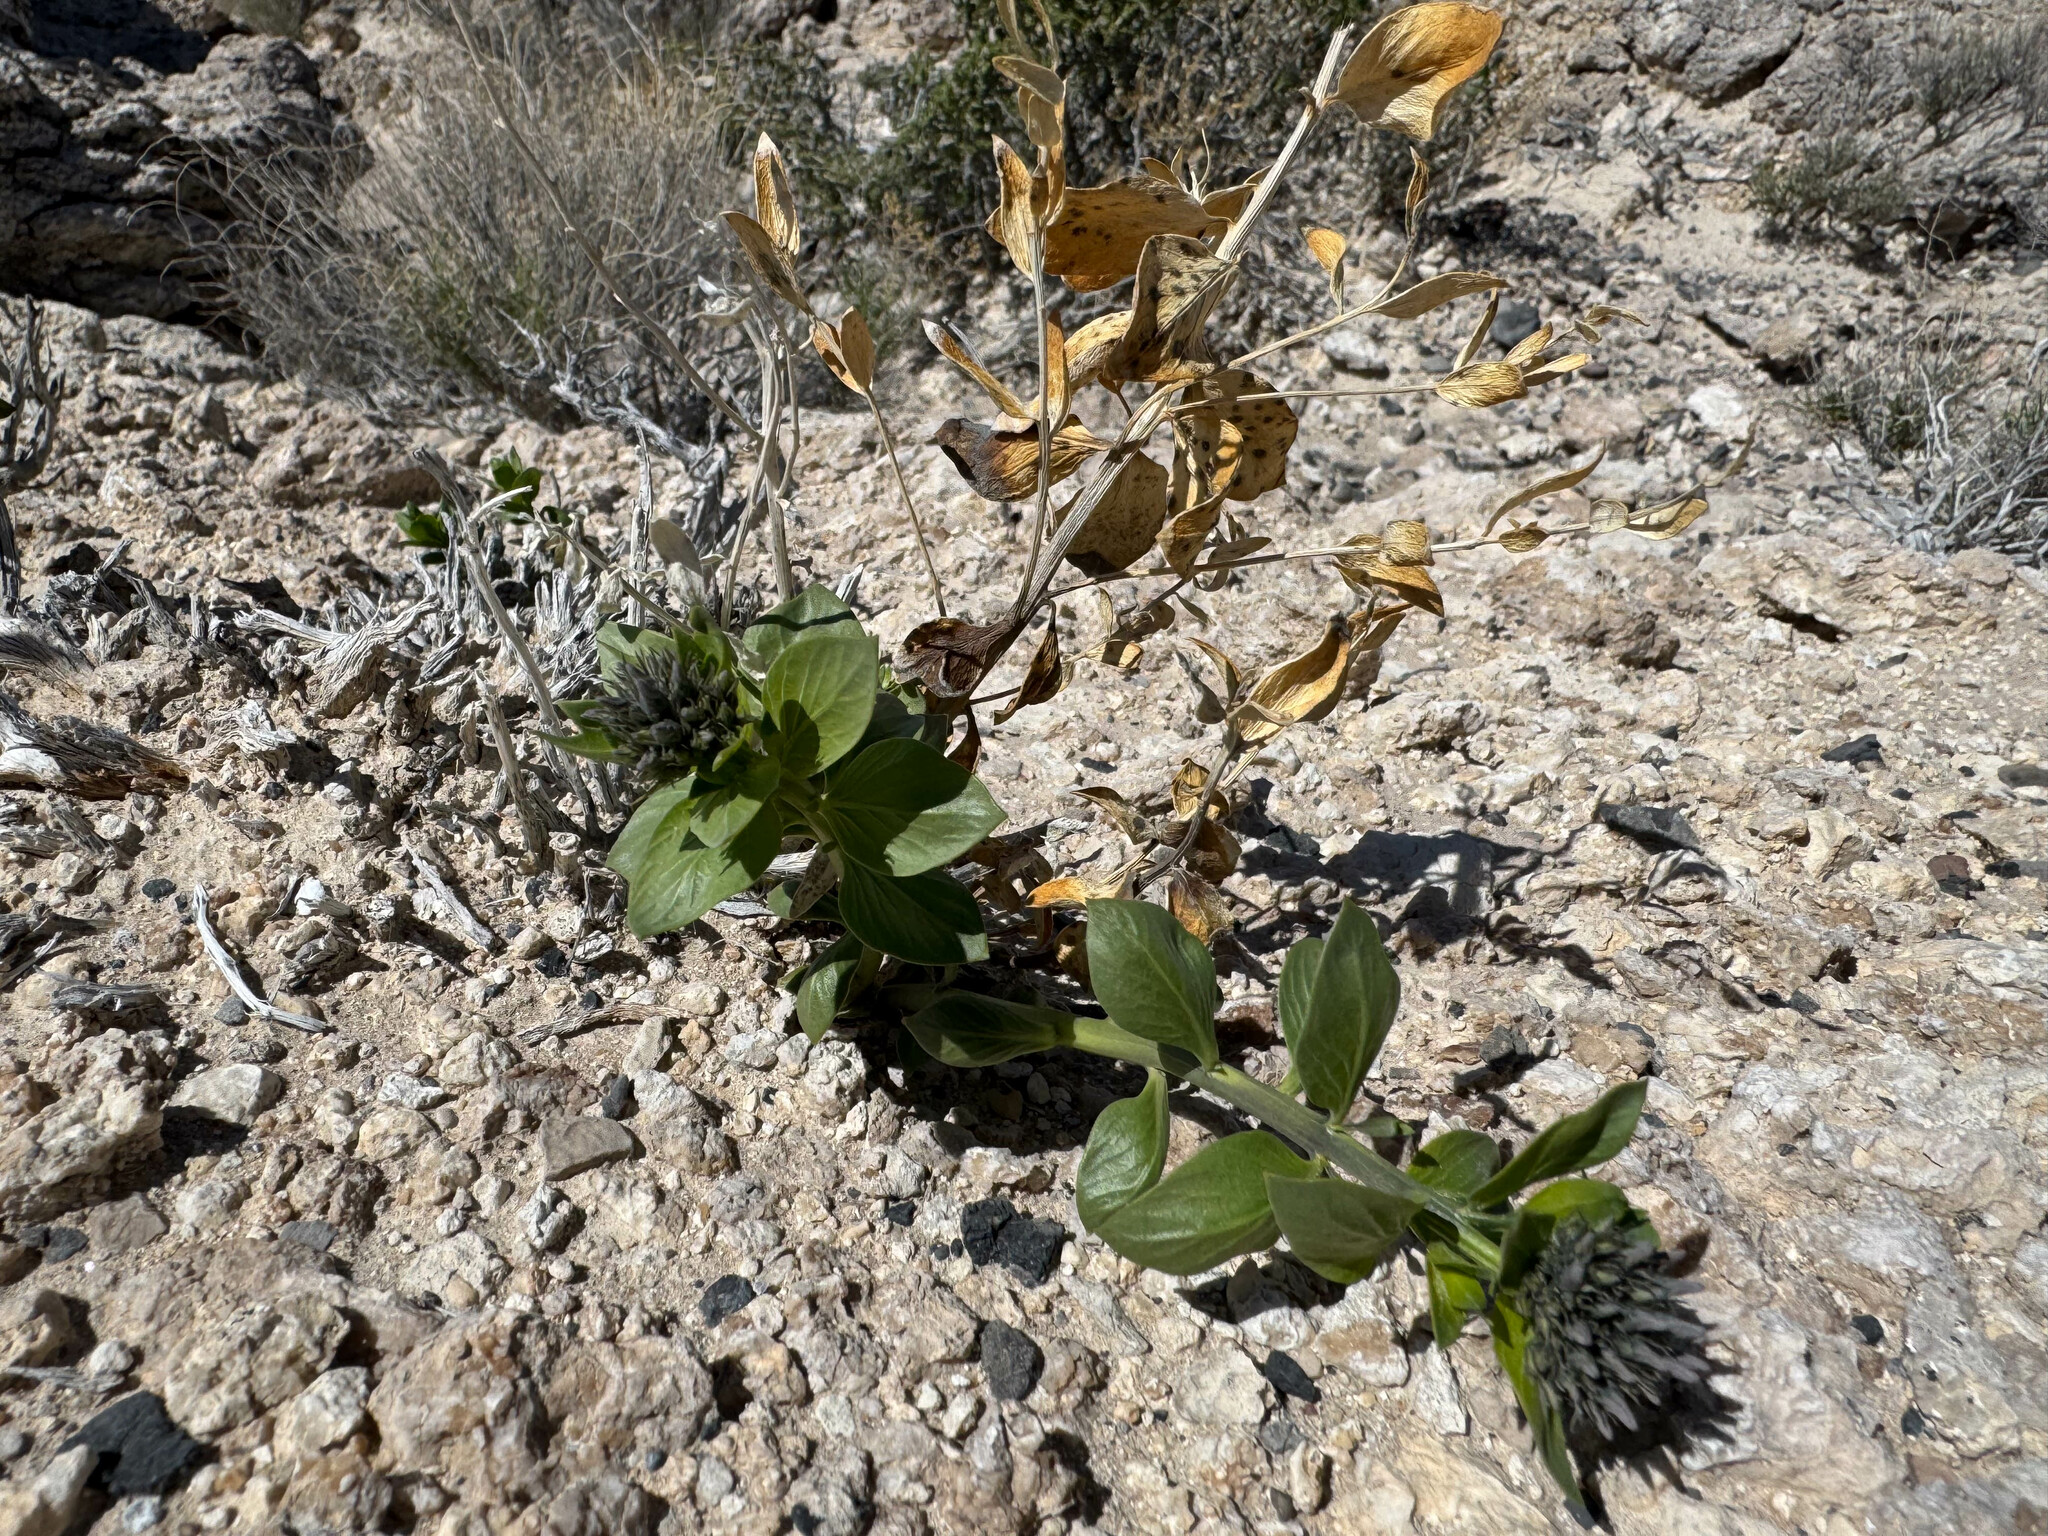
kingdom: Plantae
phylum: Tracheophyta
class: Magnoliopsida
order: Gentianales
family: Apocynaceae
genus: Amsonia
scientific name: Amsonia tomentosa
